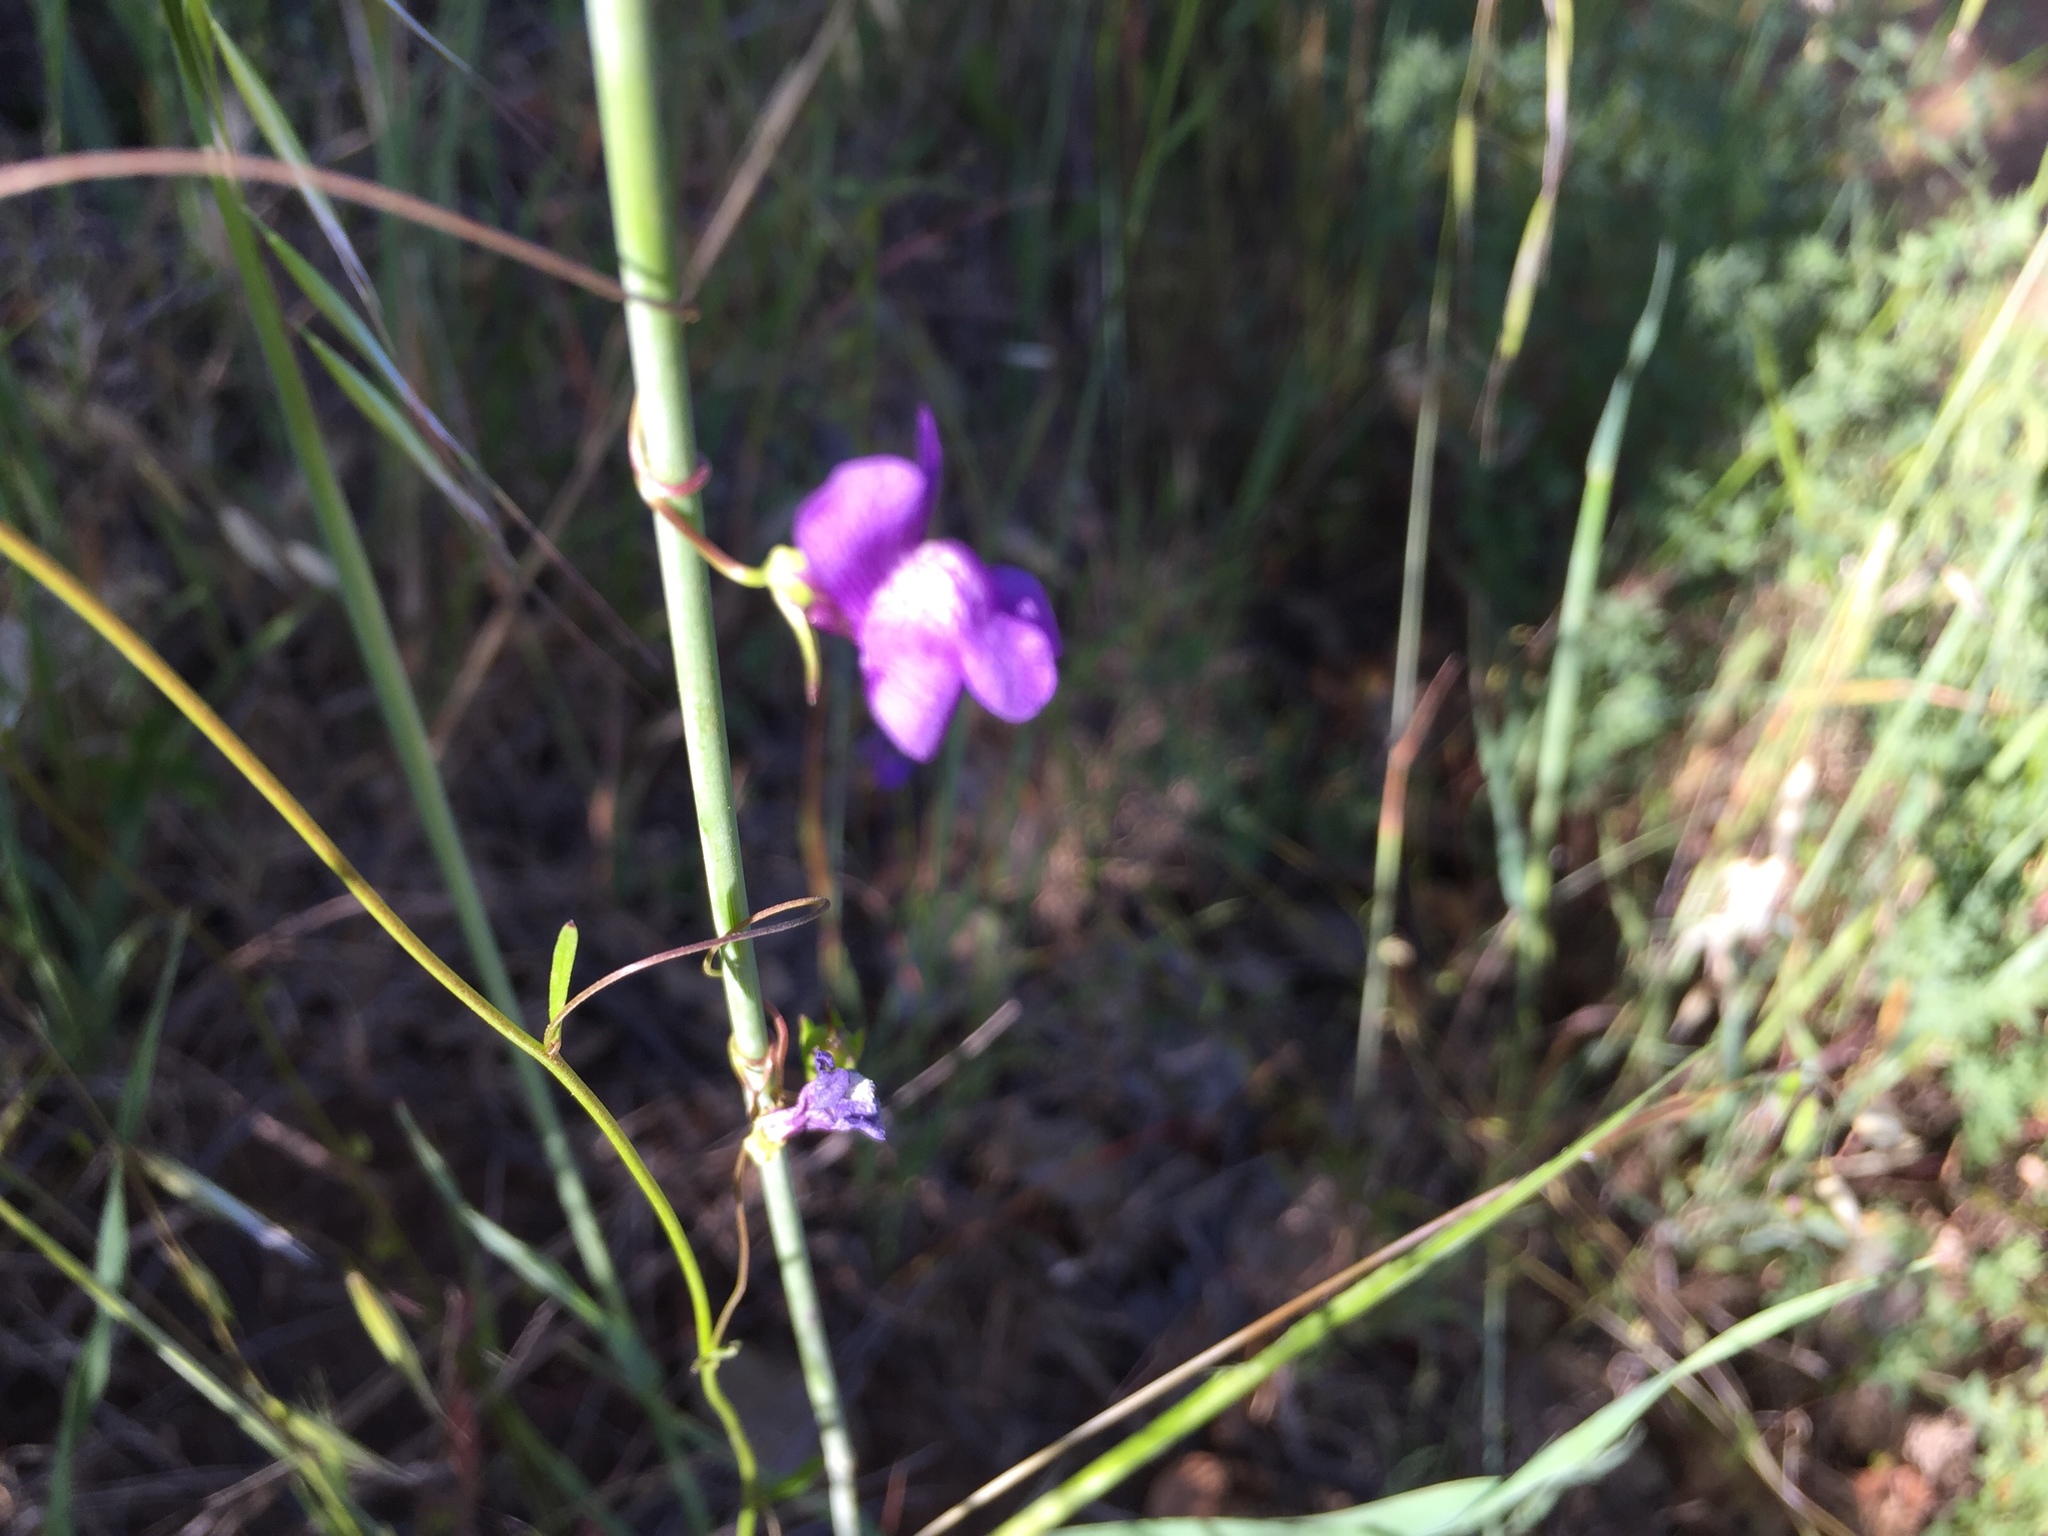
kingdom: Plantae
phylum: Tracheophyta
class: Magnoliopsida
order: Lamiales
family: Plantaginaceae
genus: Neogaerrhinum
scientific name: Neogaerrhinum strictum
